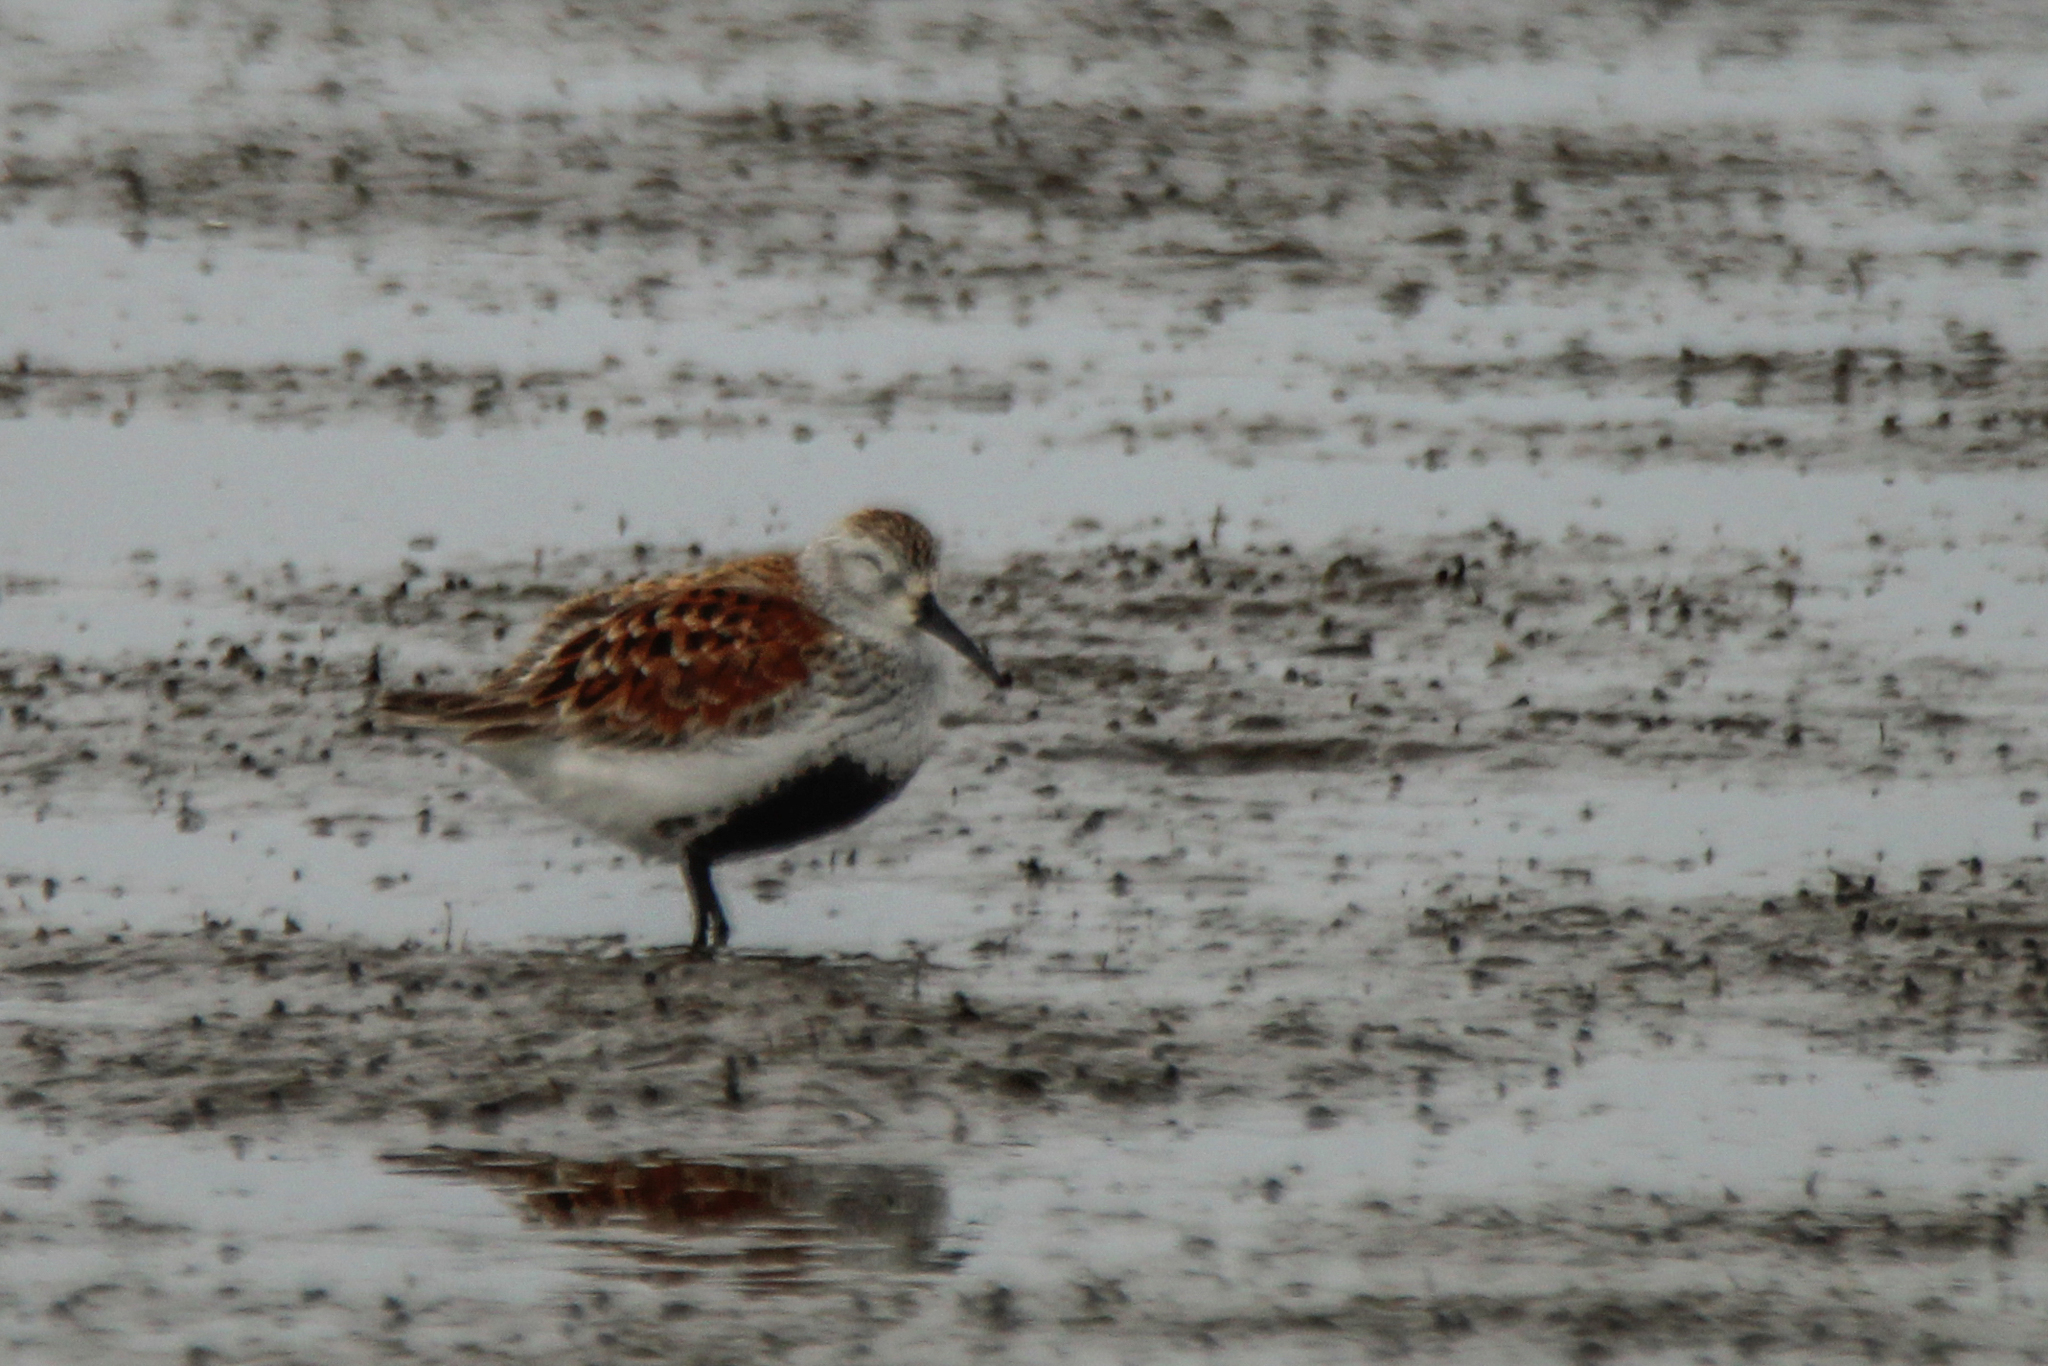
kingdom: Animalia
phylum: Chordata
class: Aves
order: Charadriiformes
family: Scolopacidae
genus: Calidris
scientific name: Calidris alpina
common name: Dunlin
